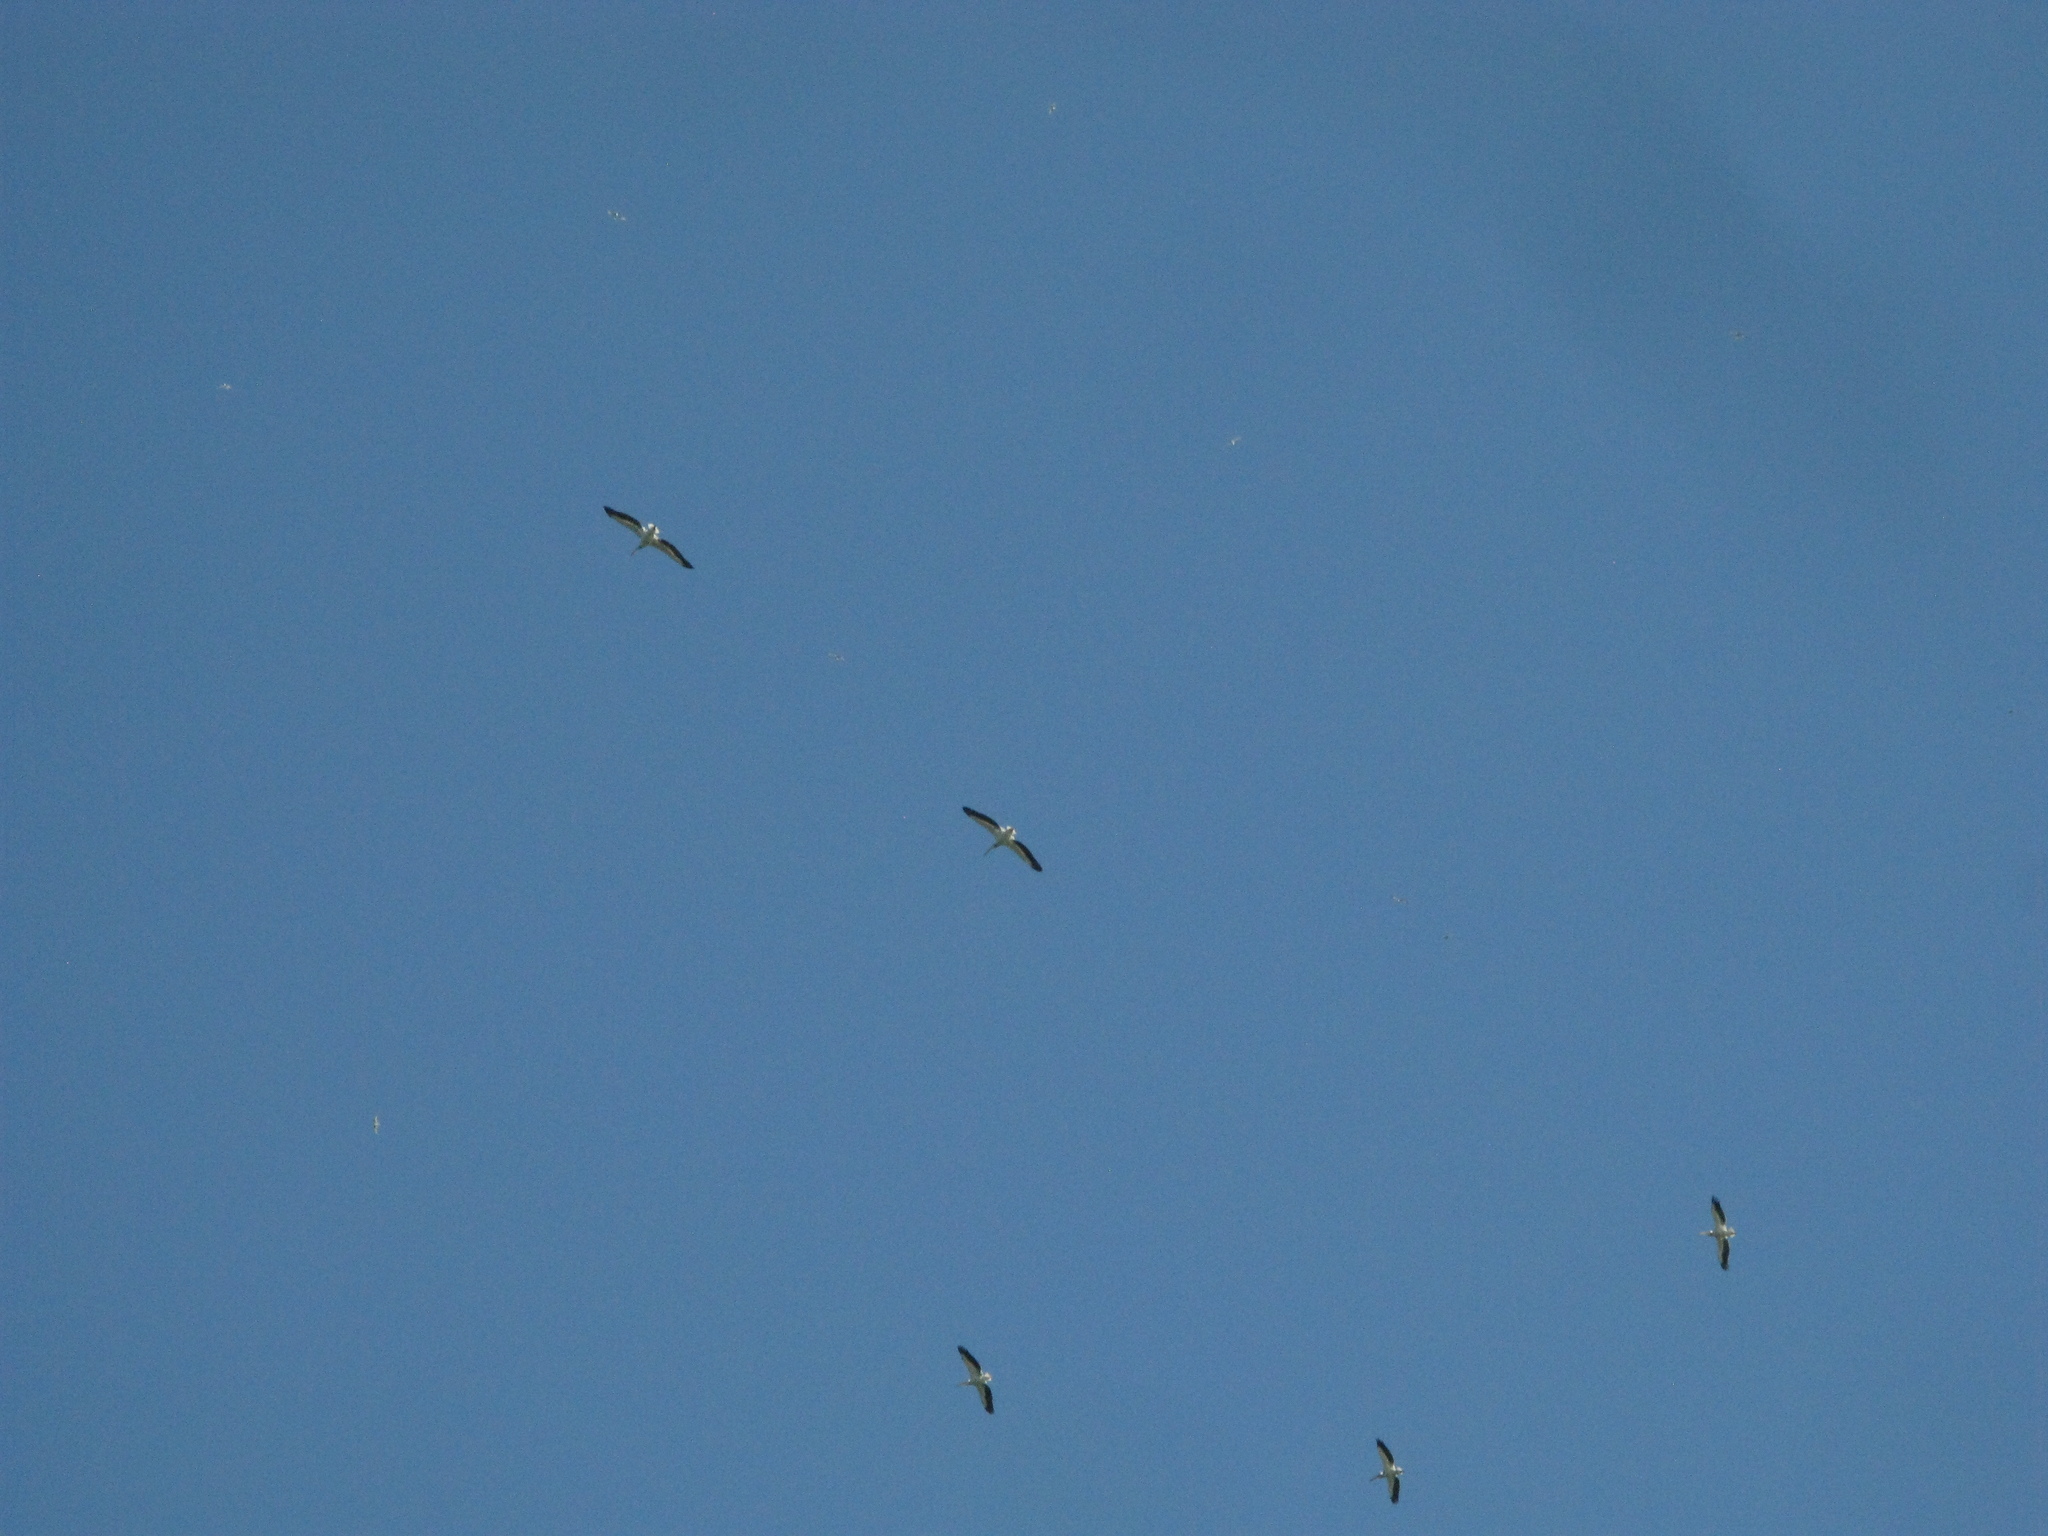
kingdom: Animalia
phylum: Chordata
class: Aves
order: Pelecaniformes
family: Pelecanidae
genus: Pelecanus
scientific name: Pelecanus onocrotalus
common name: Great white pelican
